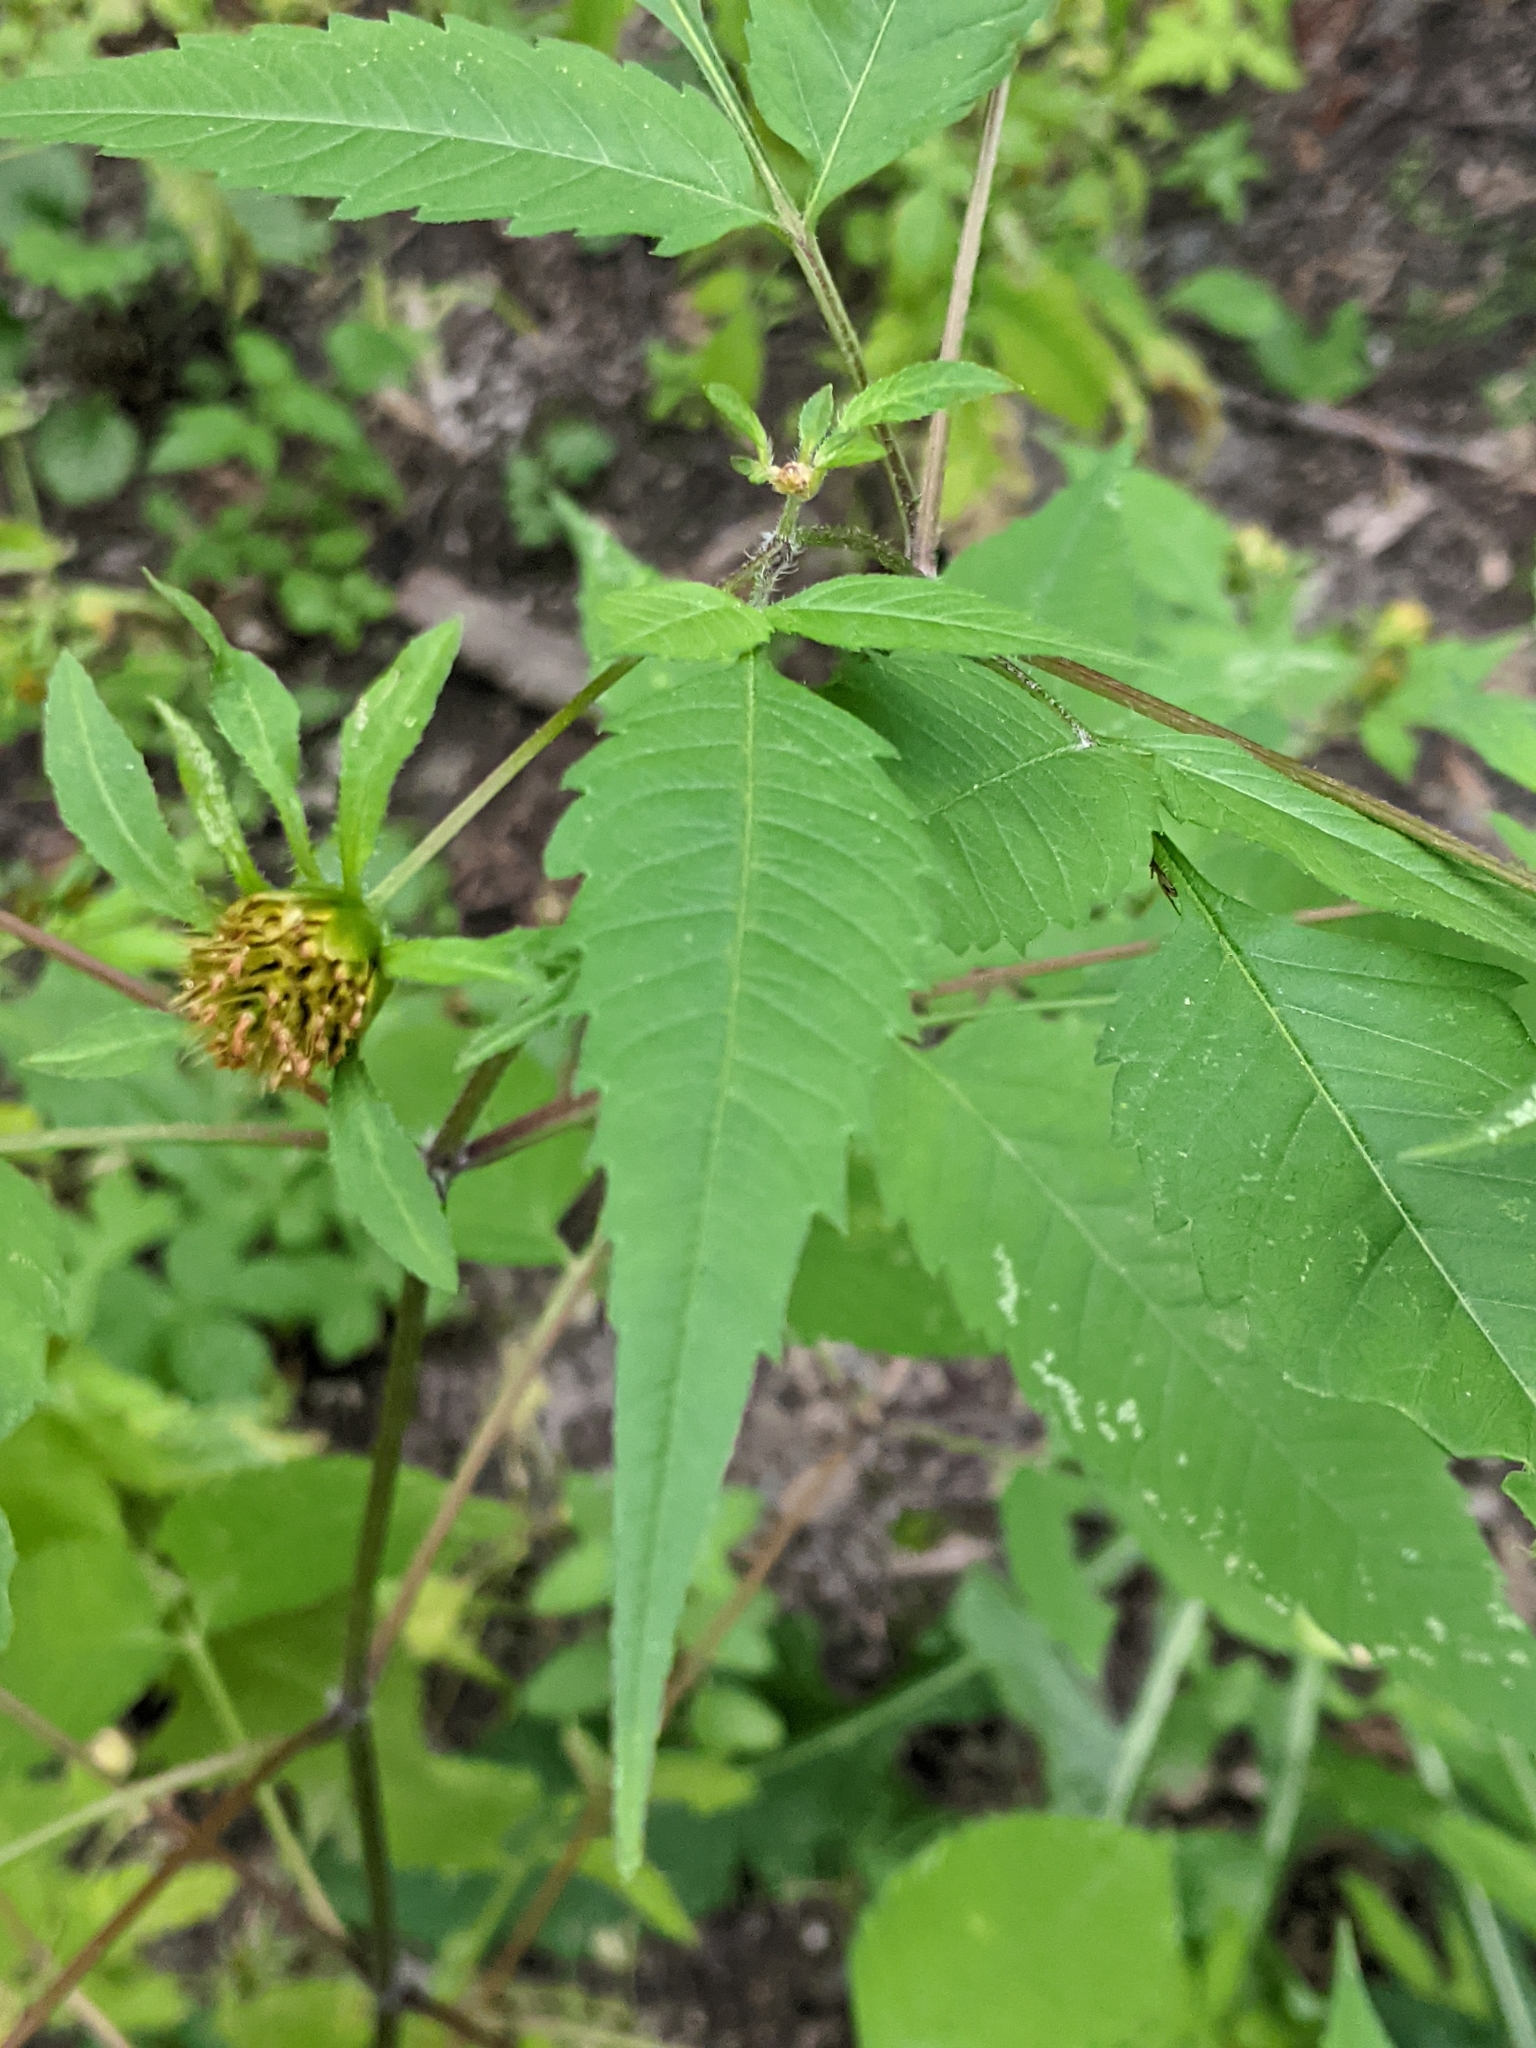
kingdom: Plantae
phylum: Tracheophyta
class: Magnoliopsida
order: Asterales
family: Asteraceae
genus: Bidens
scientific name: Bidens frondosa
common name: Beggarticks
